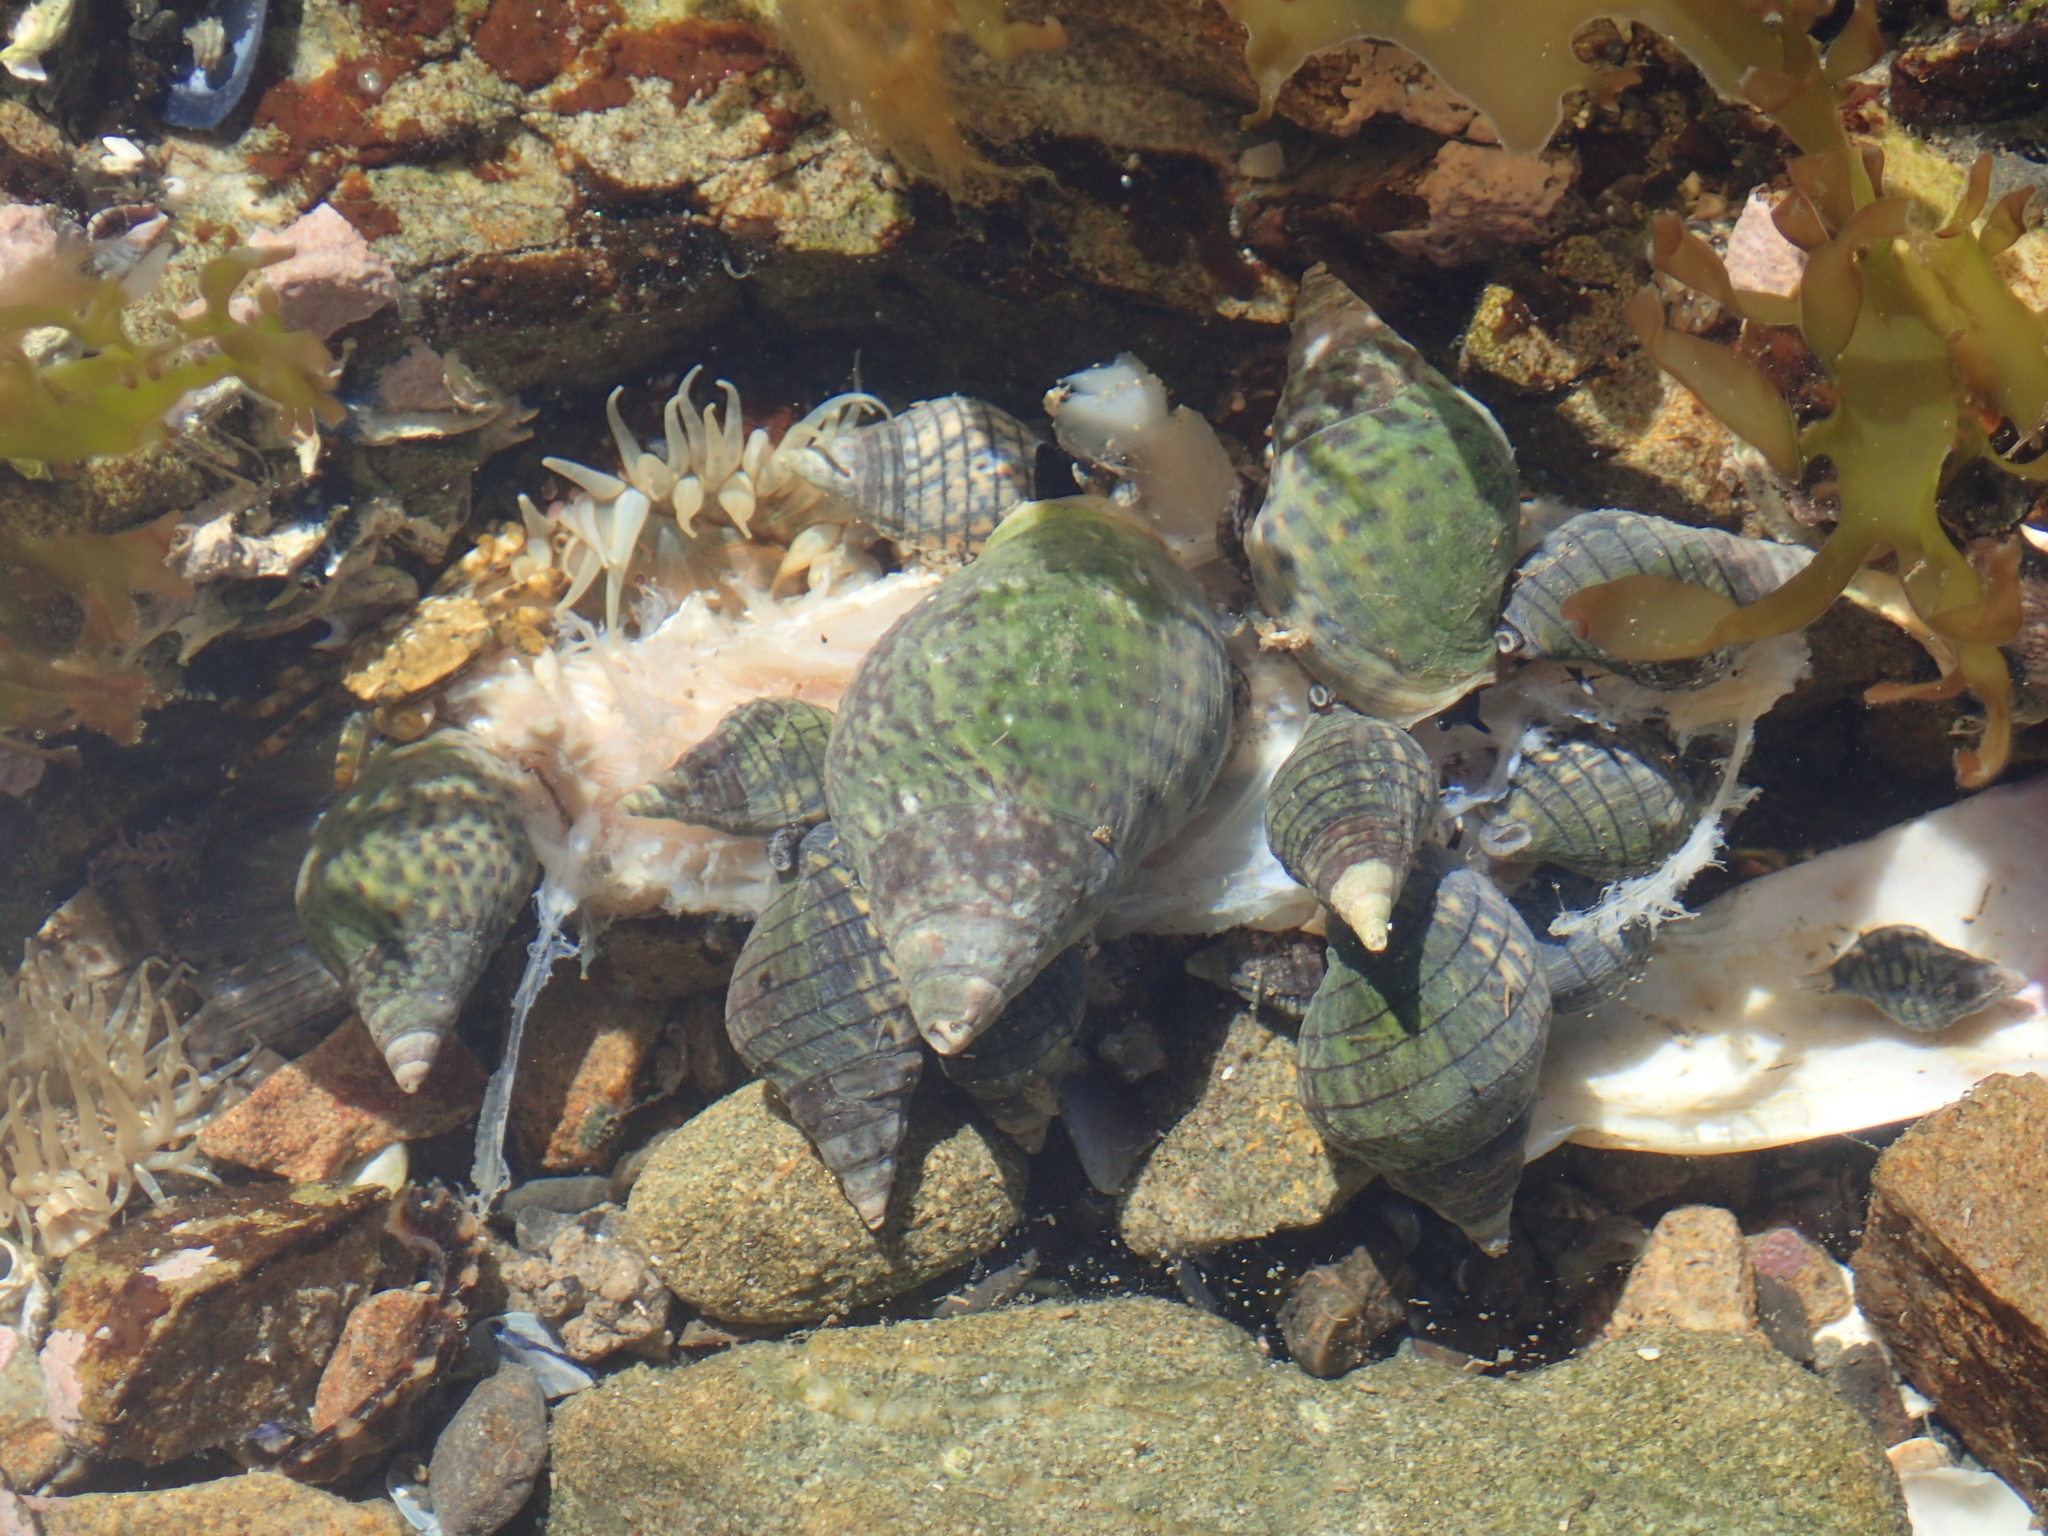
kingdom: Animalia
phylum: Mollusca
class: Gastropoda
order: Neogastropoda
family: Cominellidae
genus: Cominella
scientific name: Cominella maculosa
